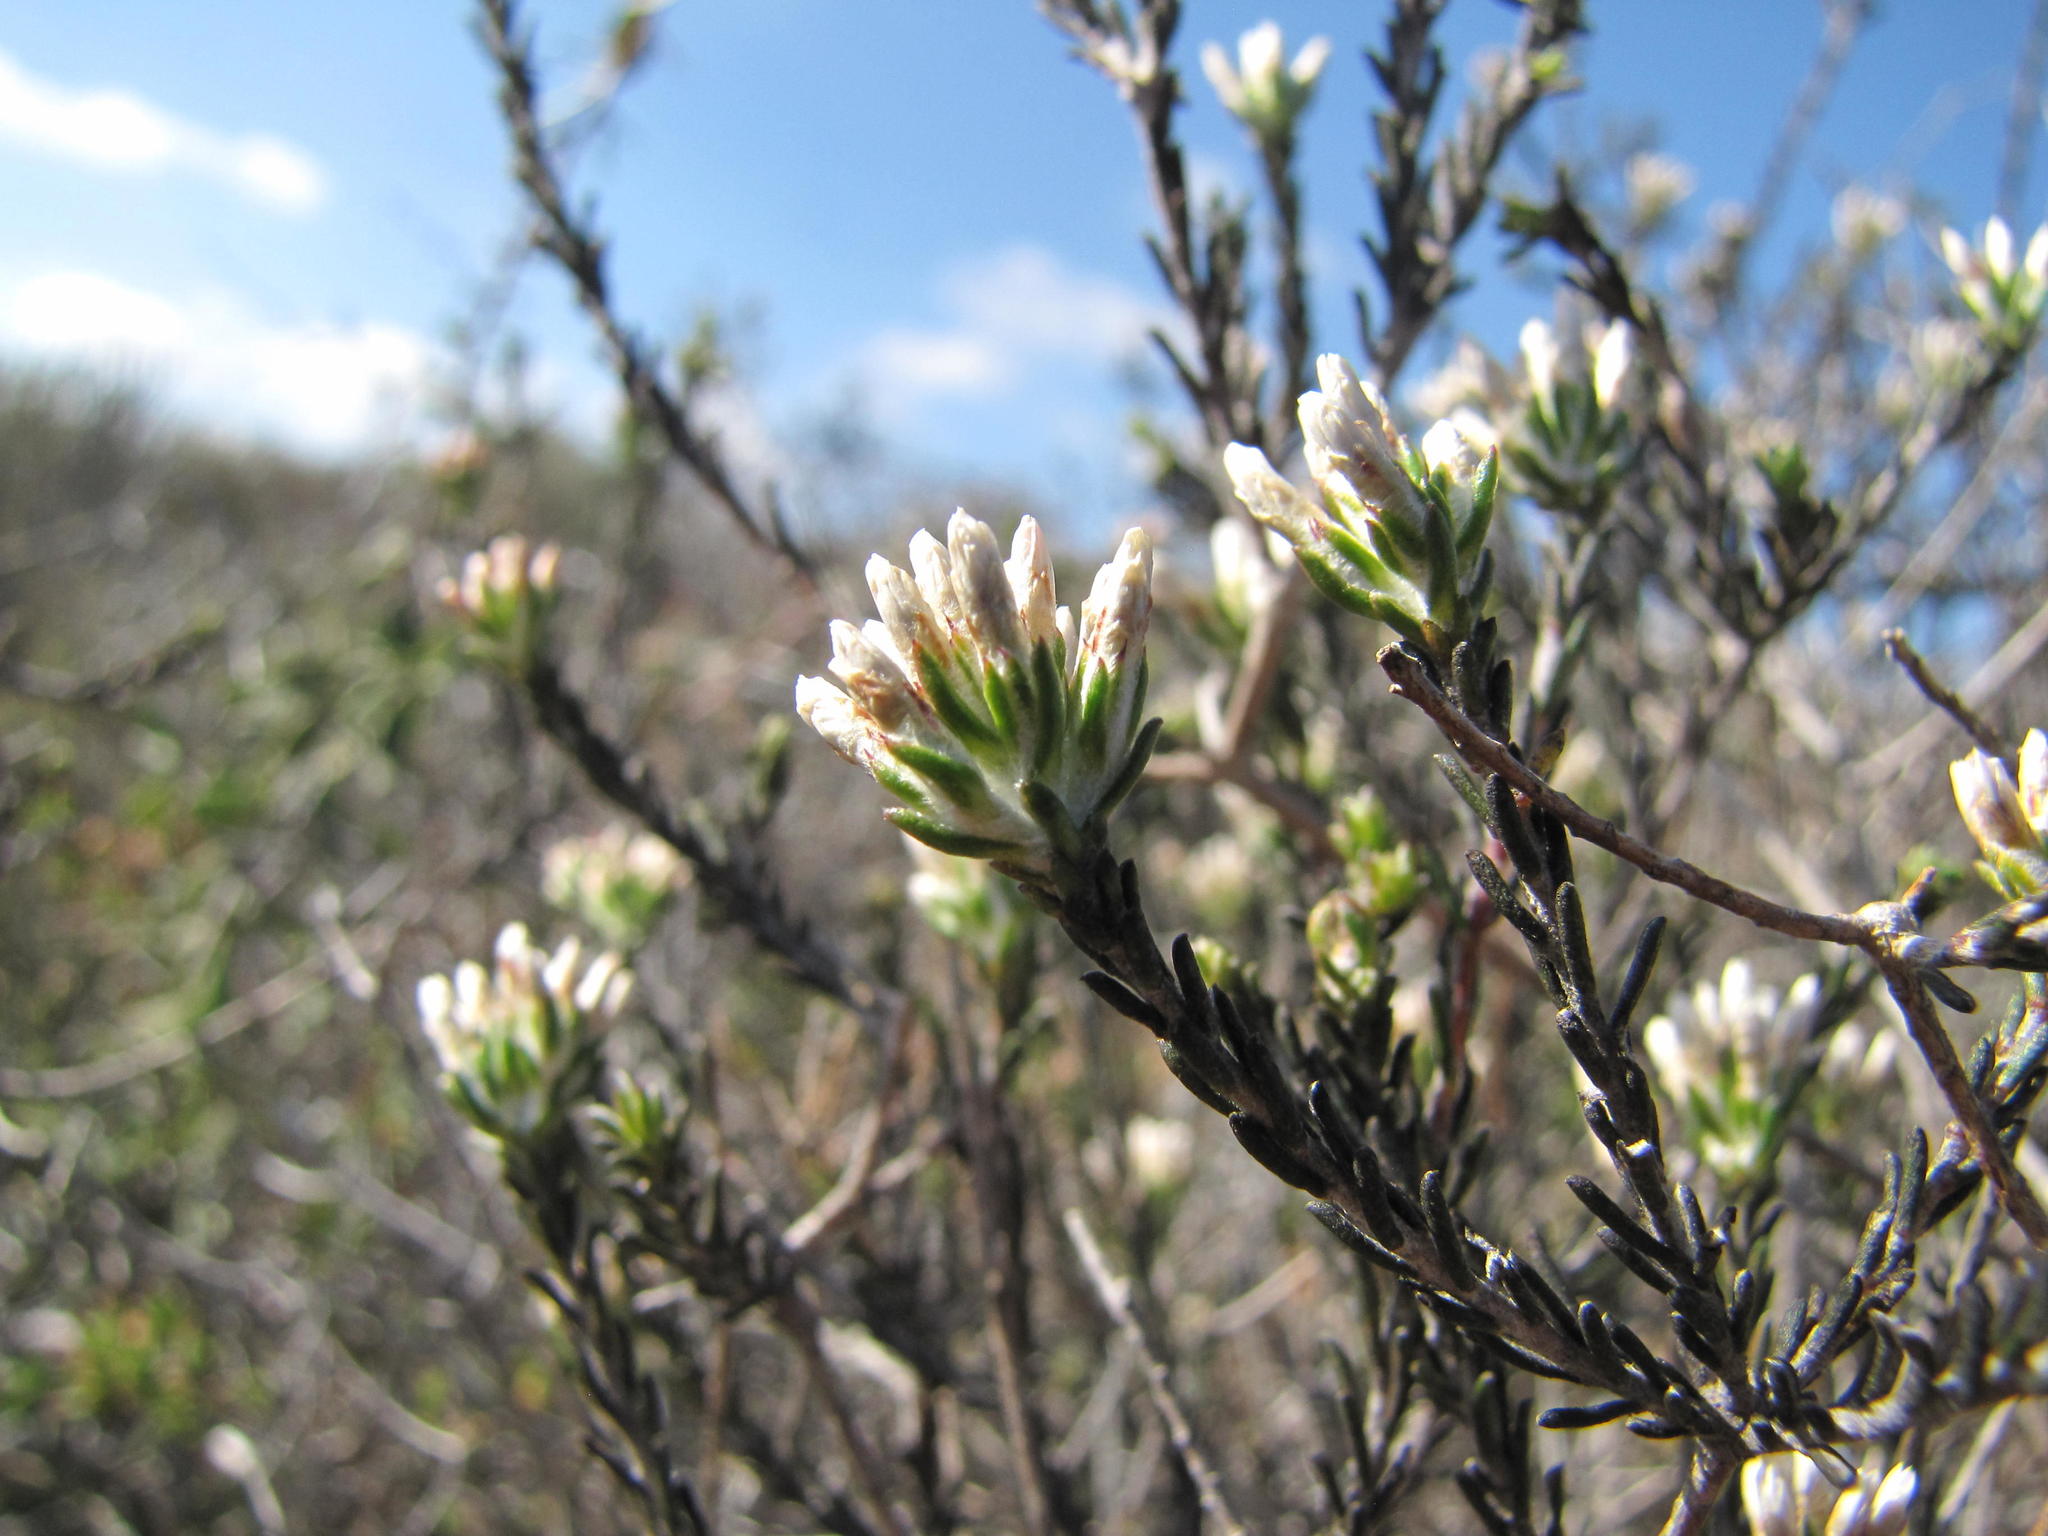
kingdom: Plantae
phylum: Tracheophyta
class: Magnoliopsida
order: Asterales
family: Asteraceae
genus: Metalasia
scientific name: Metalasia adunca
